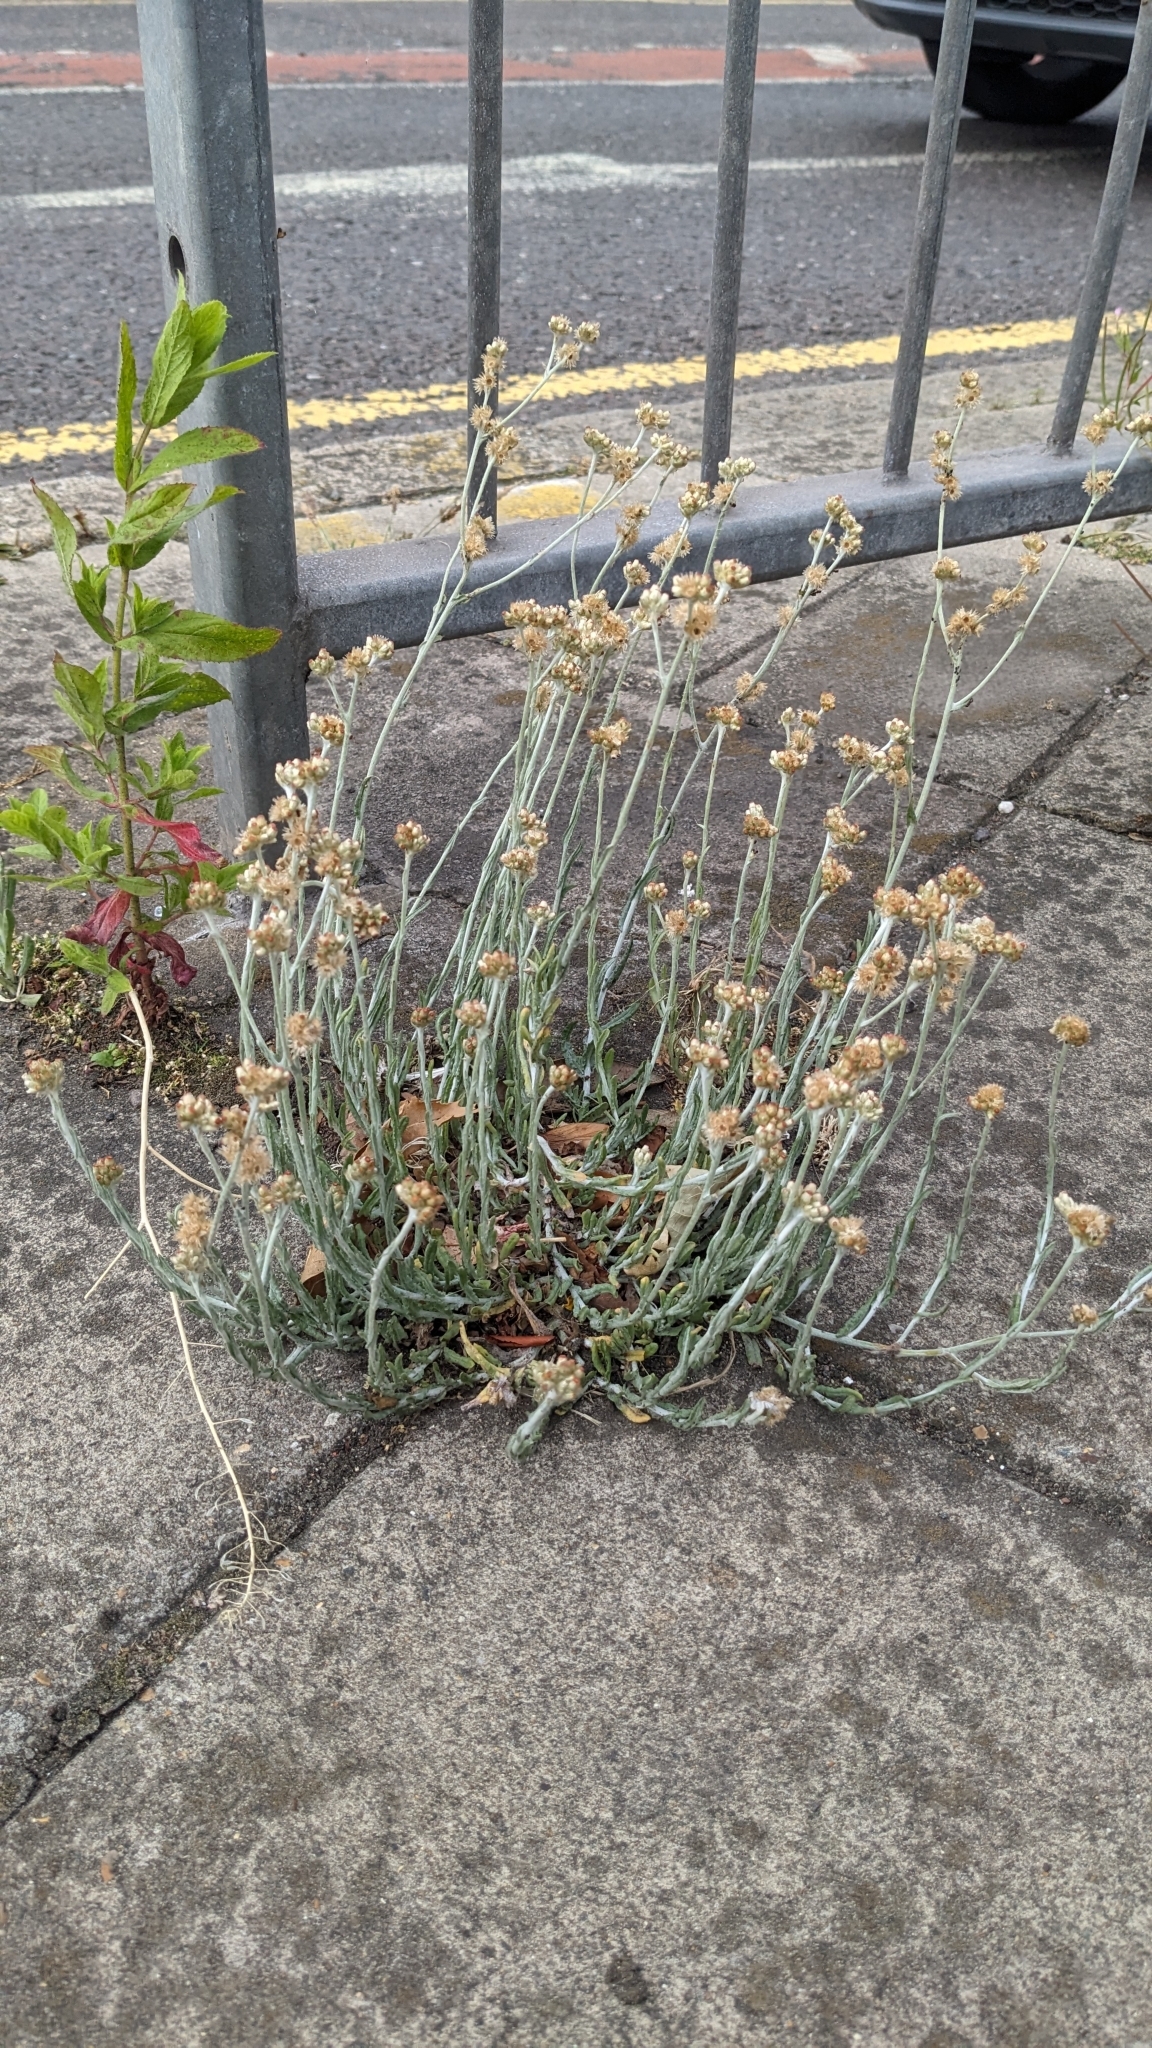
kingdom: Plantae
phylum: Tracheophyta
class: Magnoliopsida
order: Asterales
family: Asteraceae
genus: Helichrysum
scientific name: Helichrysum luteoalbum
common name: Daisy
